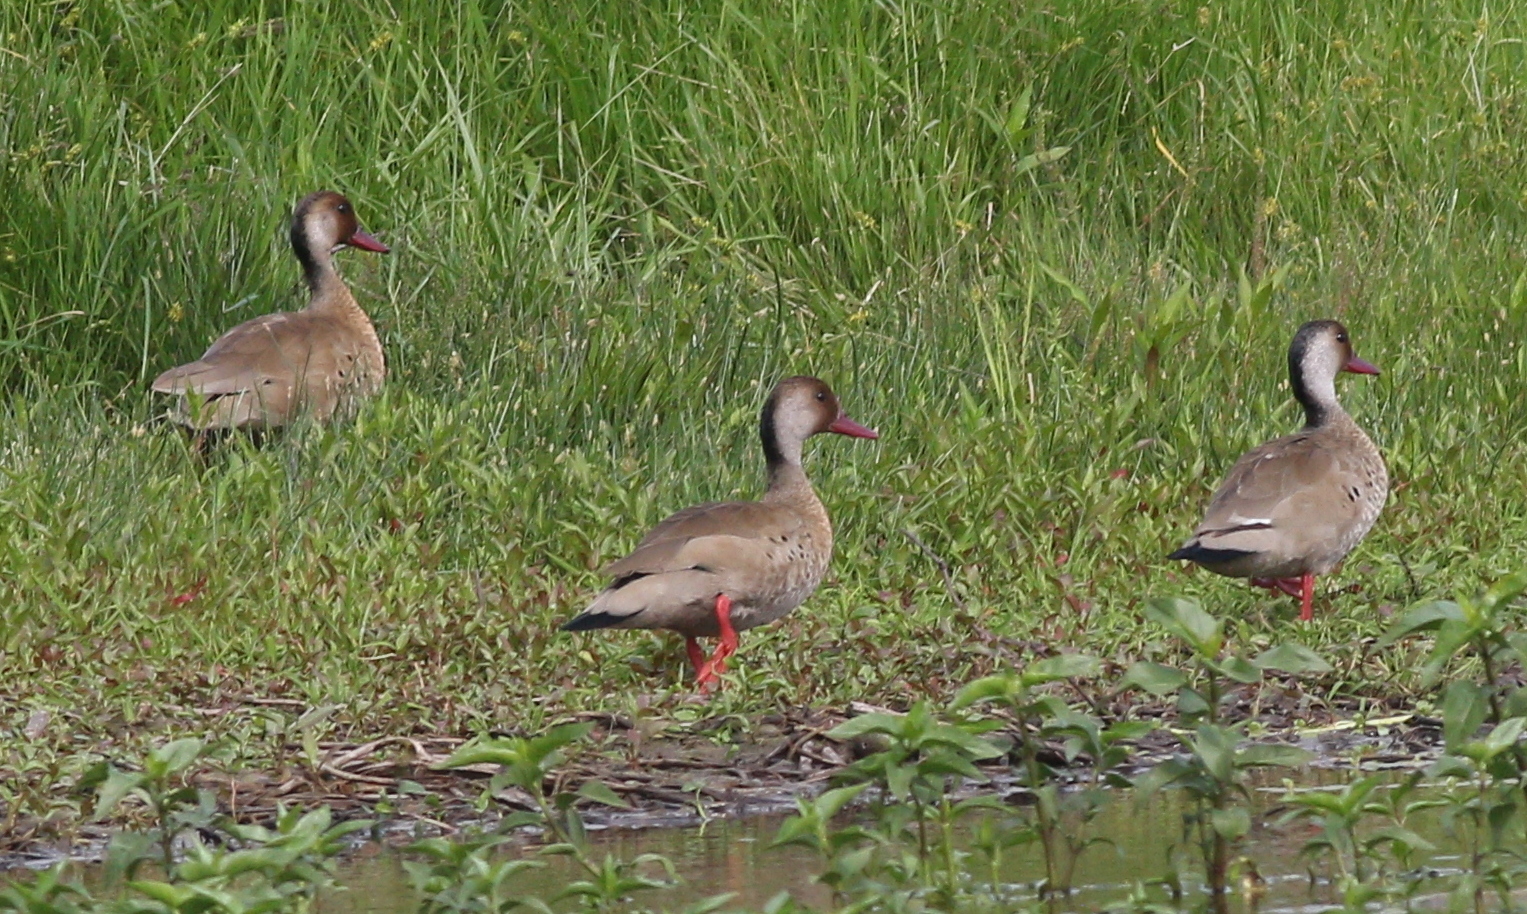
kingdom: Animalia
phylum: Chordata
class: Aves
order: Anseriformes
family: Anatidae
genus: Amazonetta
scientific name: Amazonetta brasiliensis
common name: Brazilian teal
